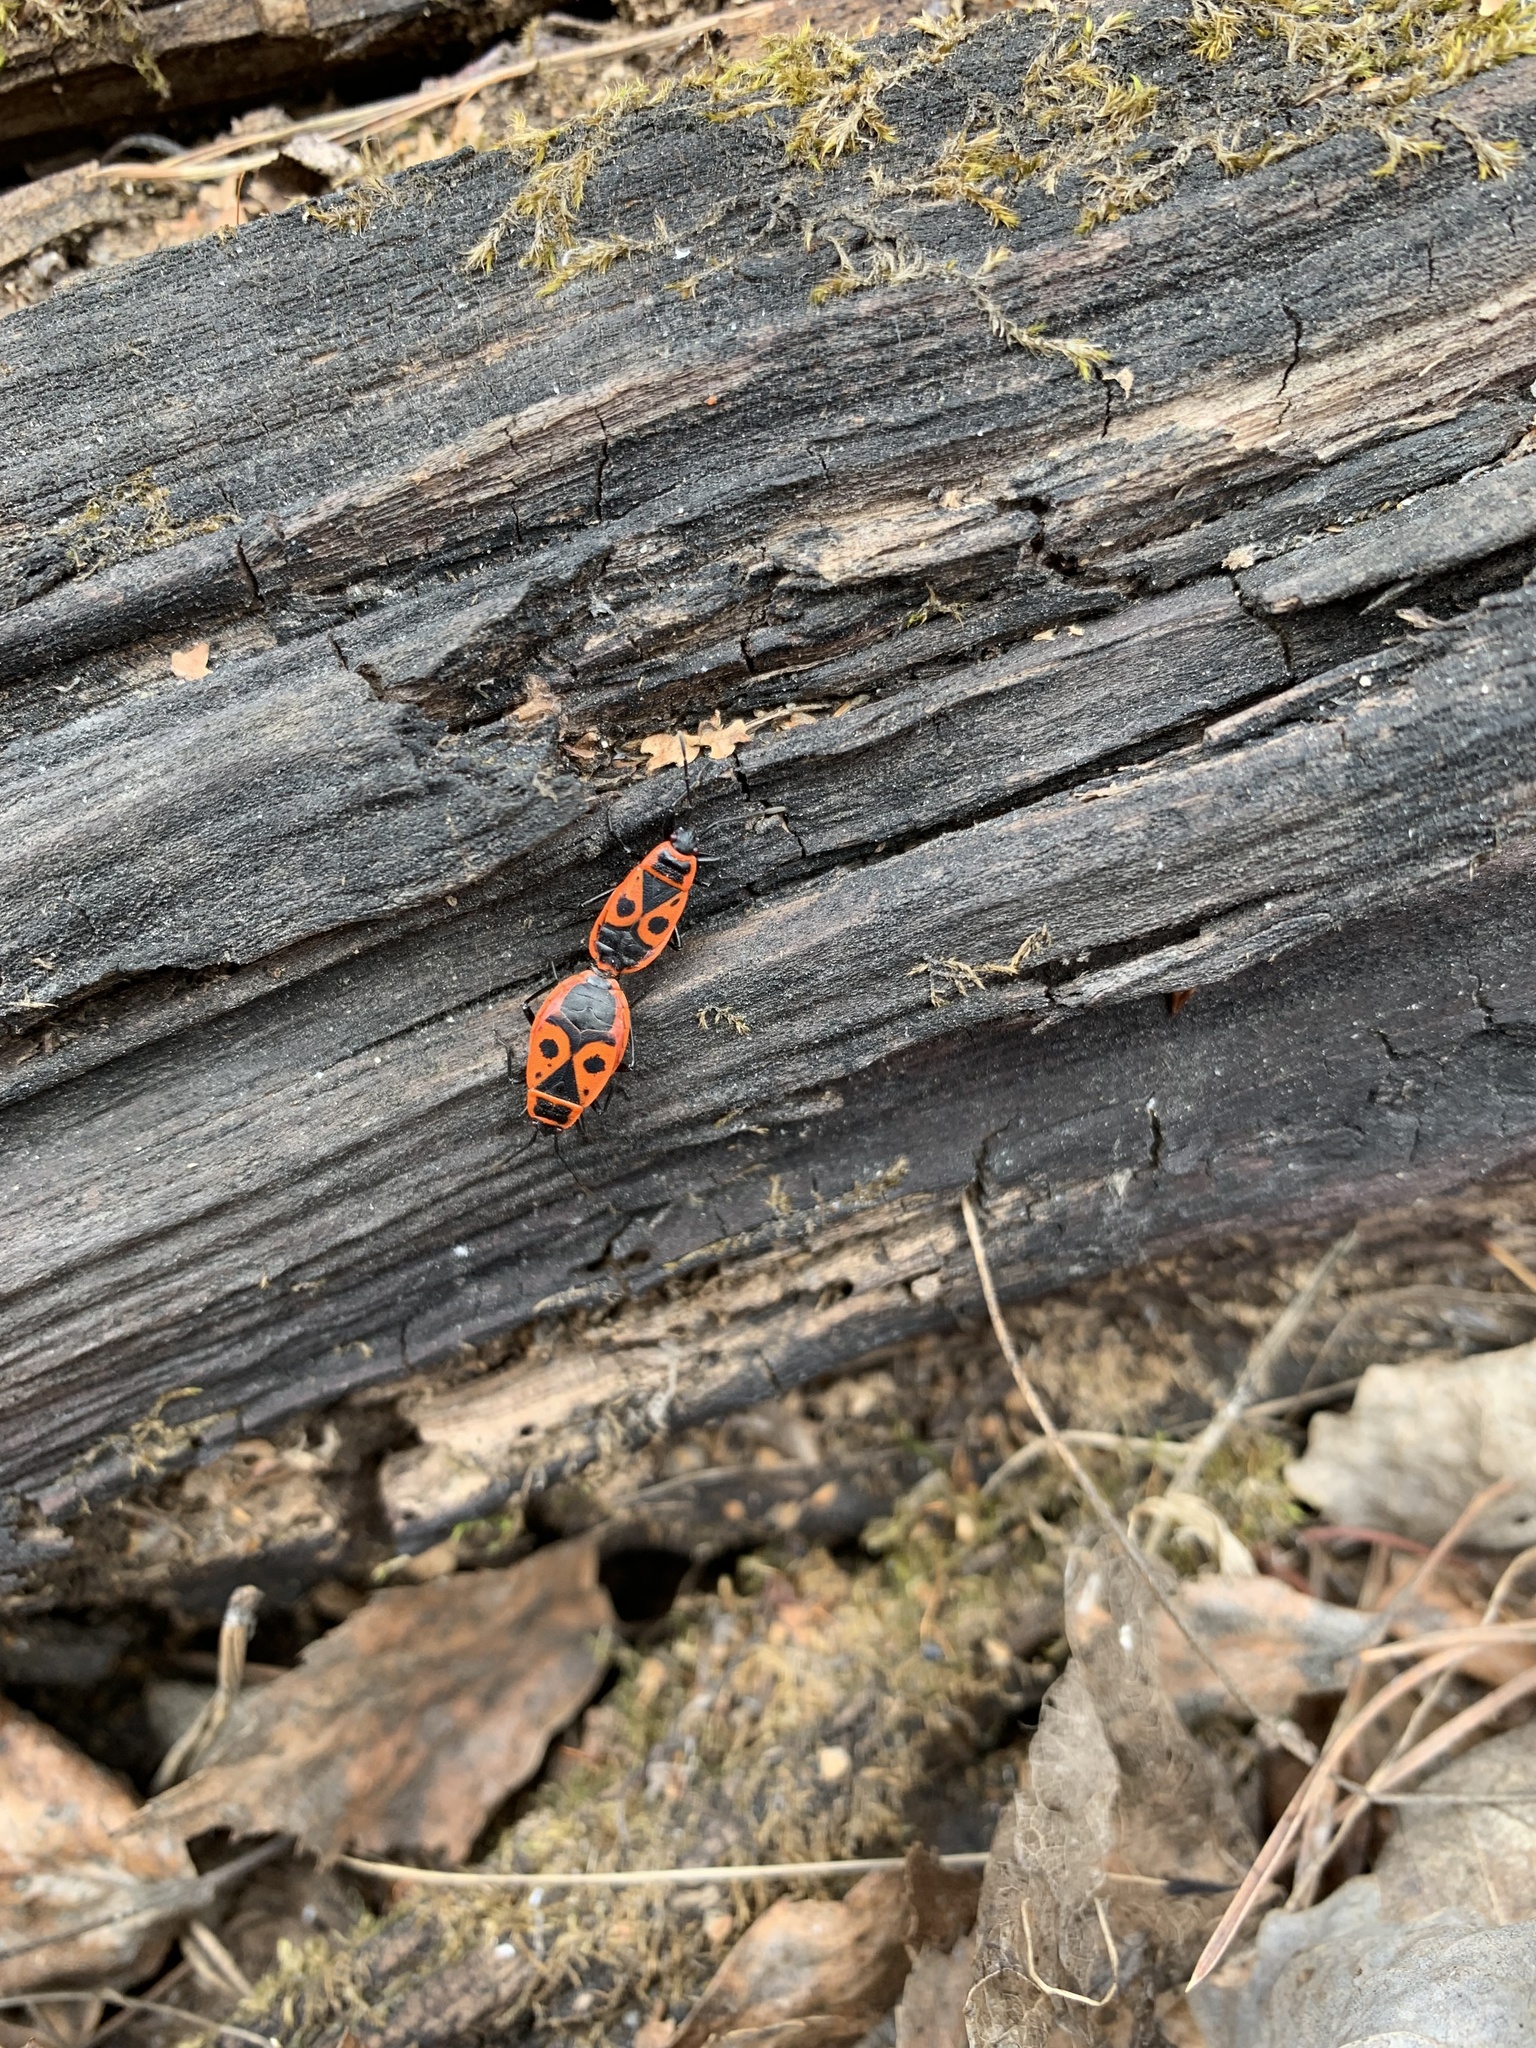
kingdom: Animalia
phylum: Arthropoda
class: Insecta
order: Hemiptera
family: Pyrrhocoridae
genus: Pyrrhocoris
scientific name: Pyrrhocoris apterus
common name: Firebug
